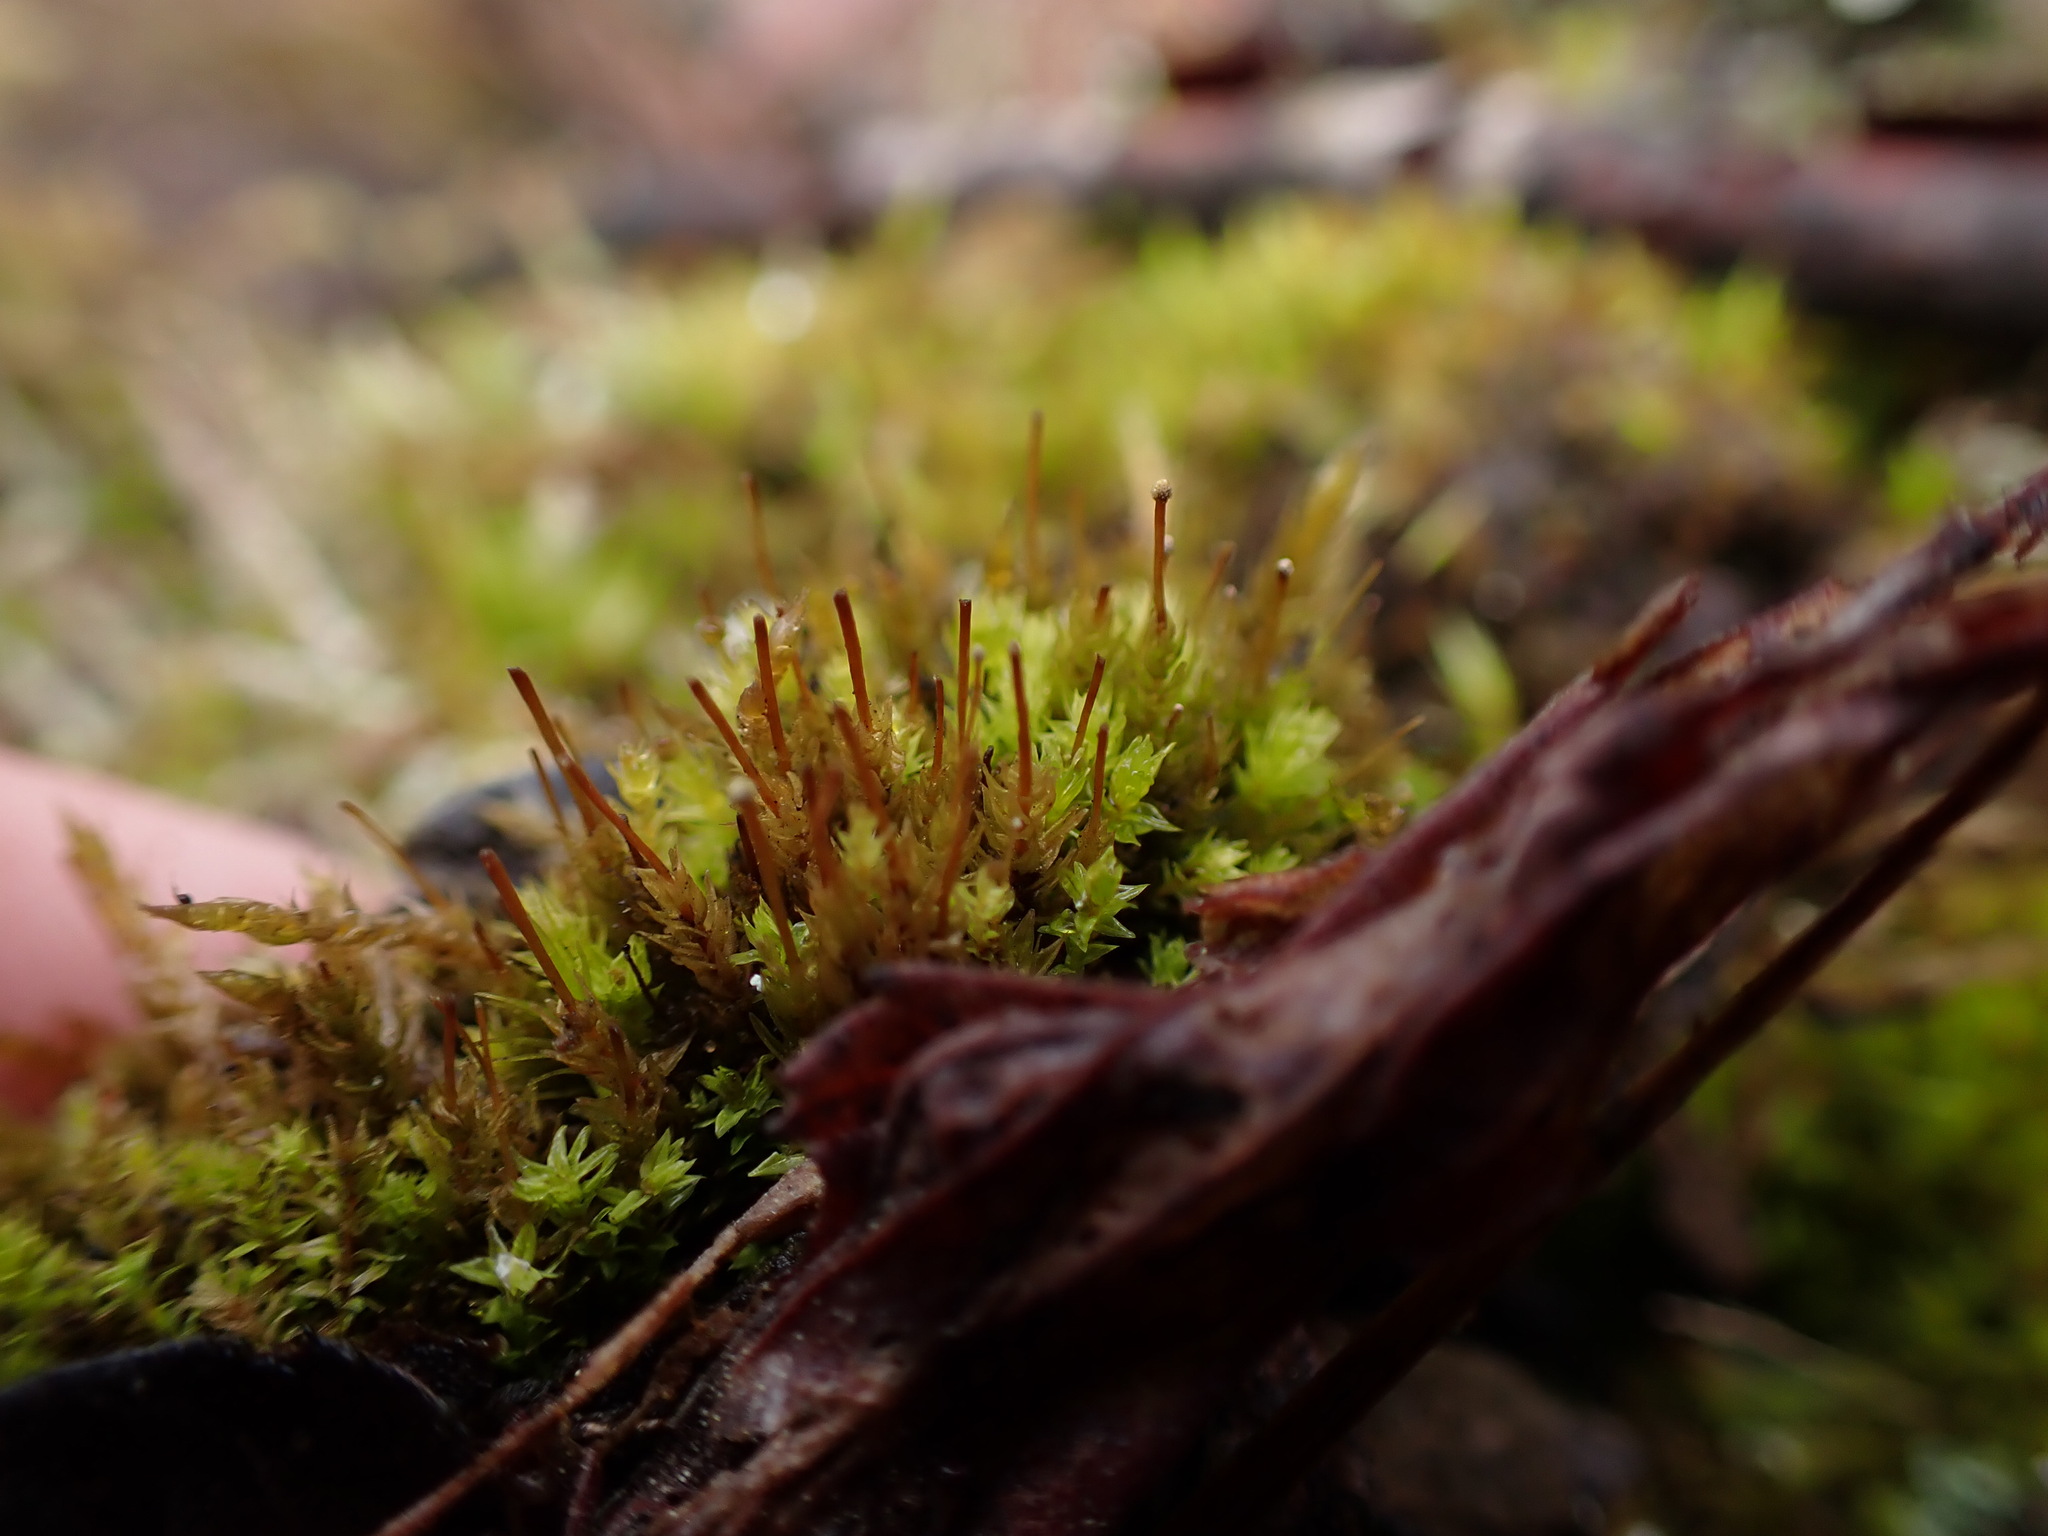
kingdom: Plantae
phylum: Bryophyta
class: Bryopsida
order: Aulacomniales
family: Aulacomniaceae
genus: Aulacomnium
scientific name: Aulacomnium androgynum
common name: Little groove moss
